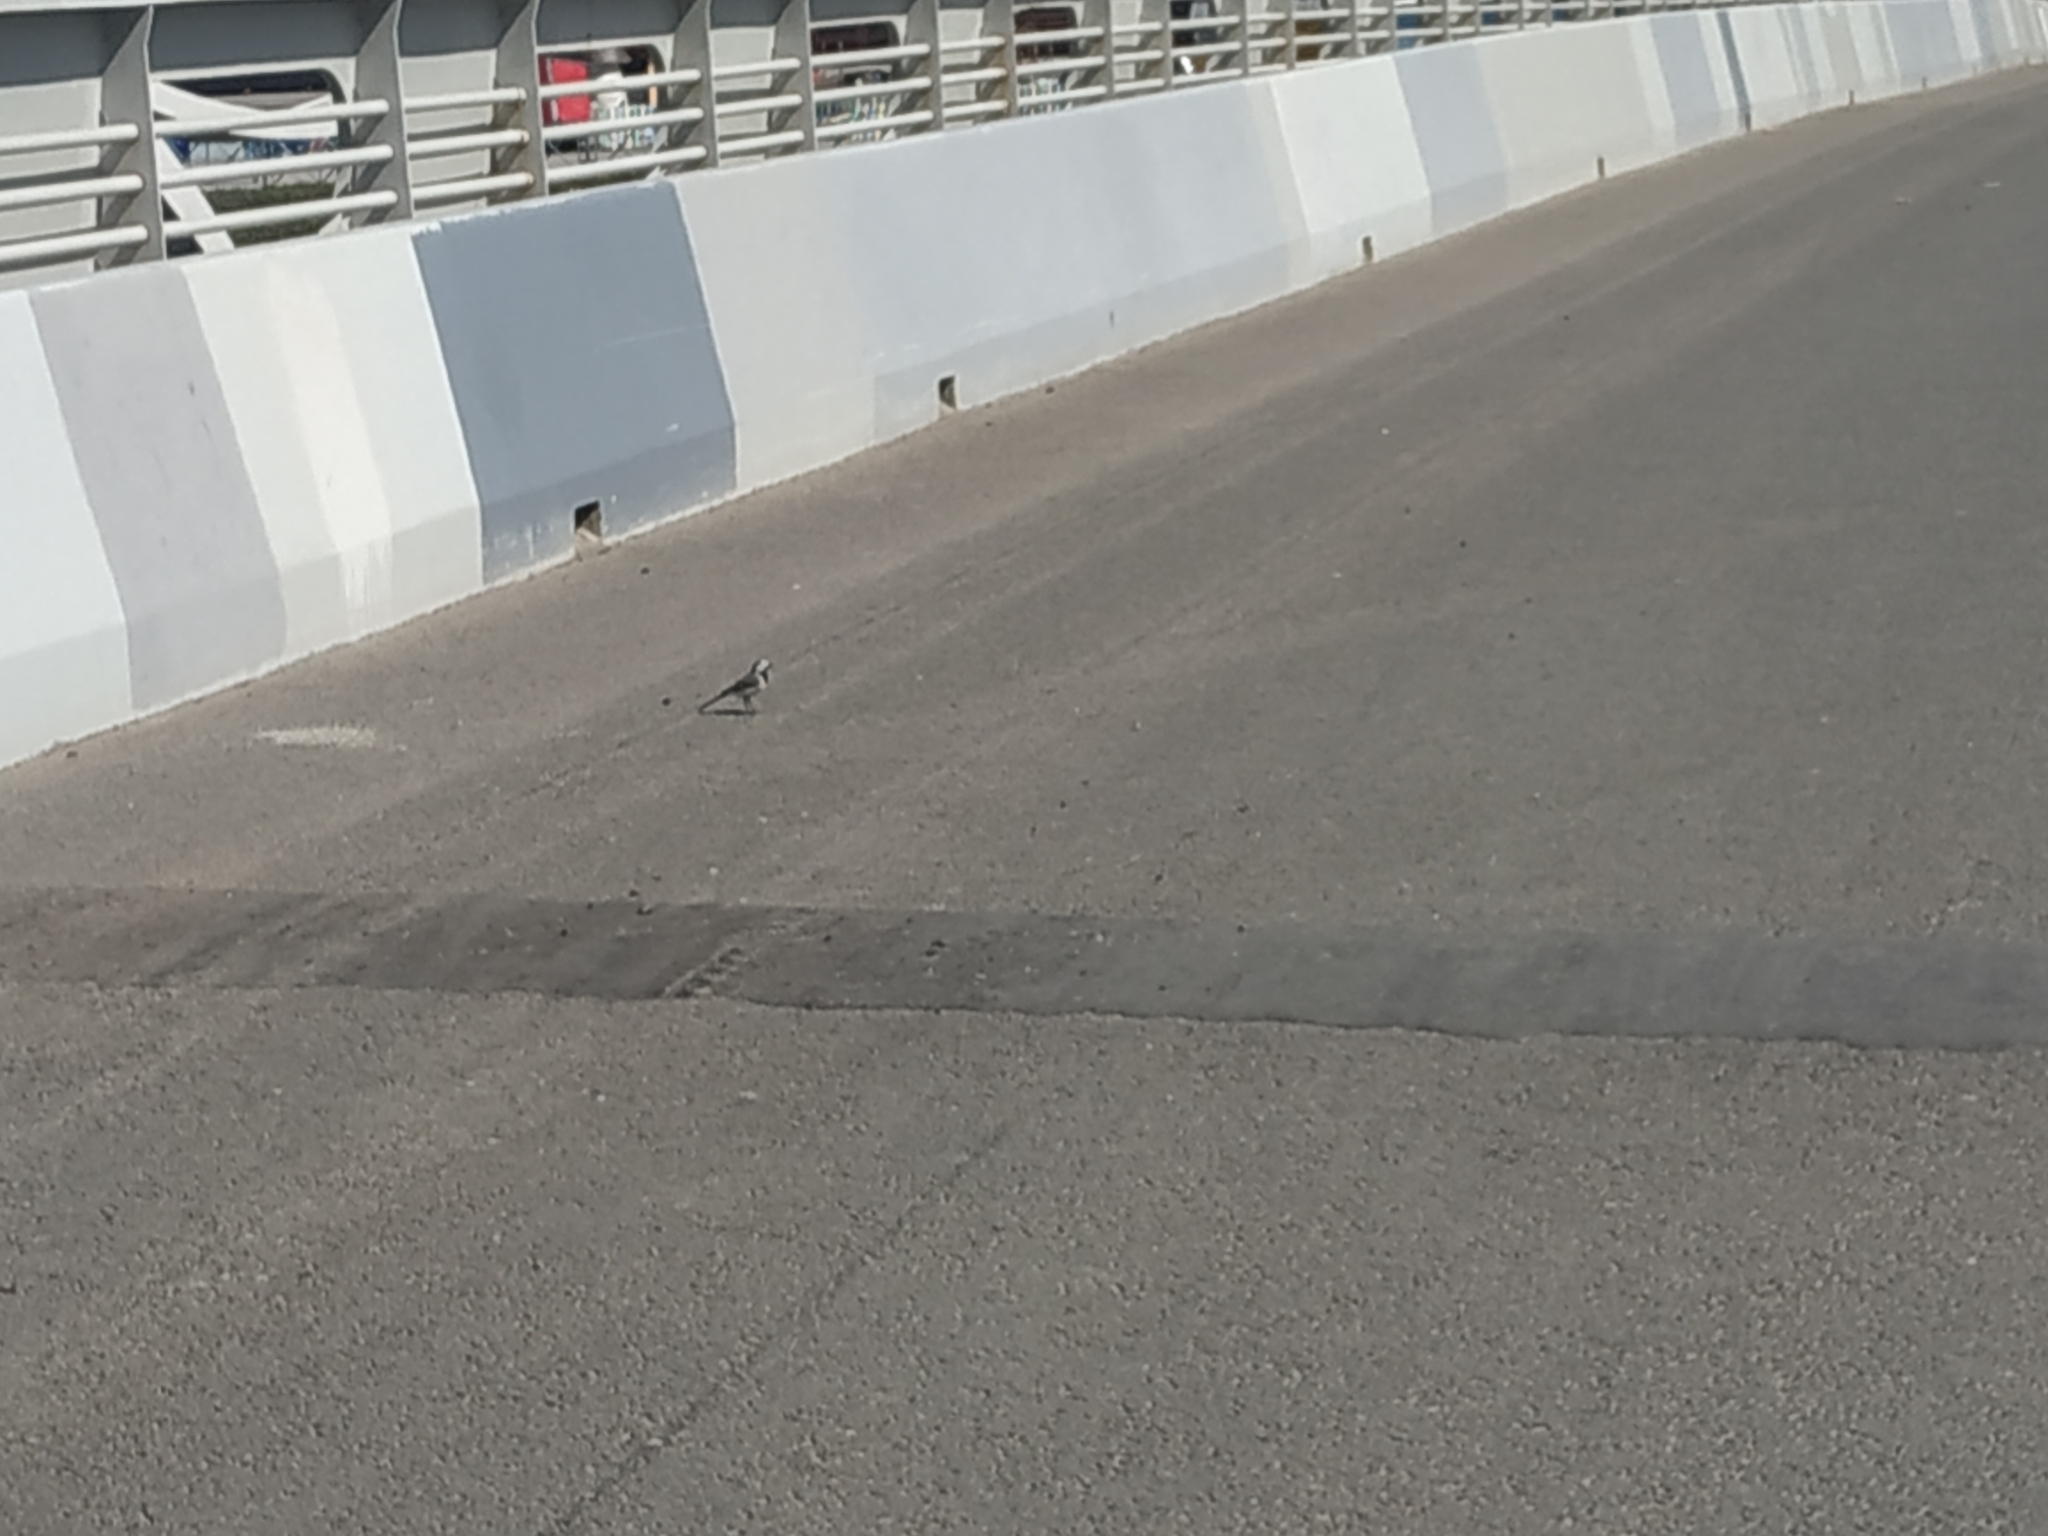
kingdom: Animalia
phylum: Chordata
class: Aves
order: Passeriformes
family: Motacillidae
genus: Motacilla
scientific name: Motacilla alba
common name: White wagtail
